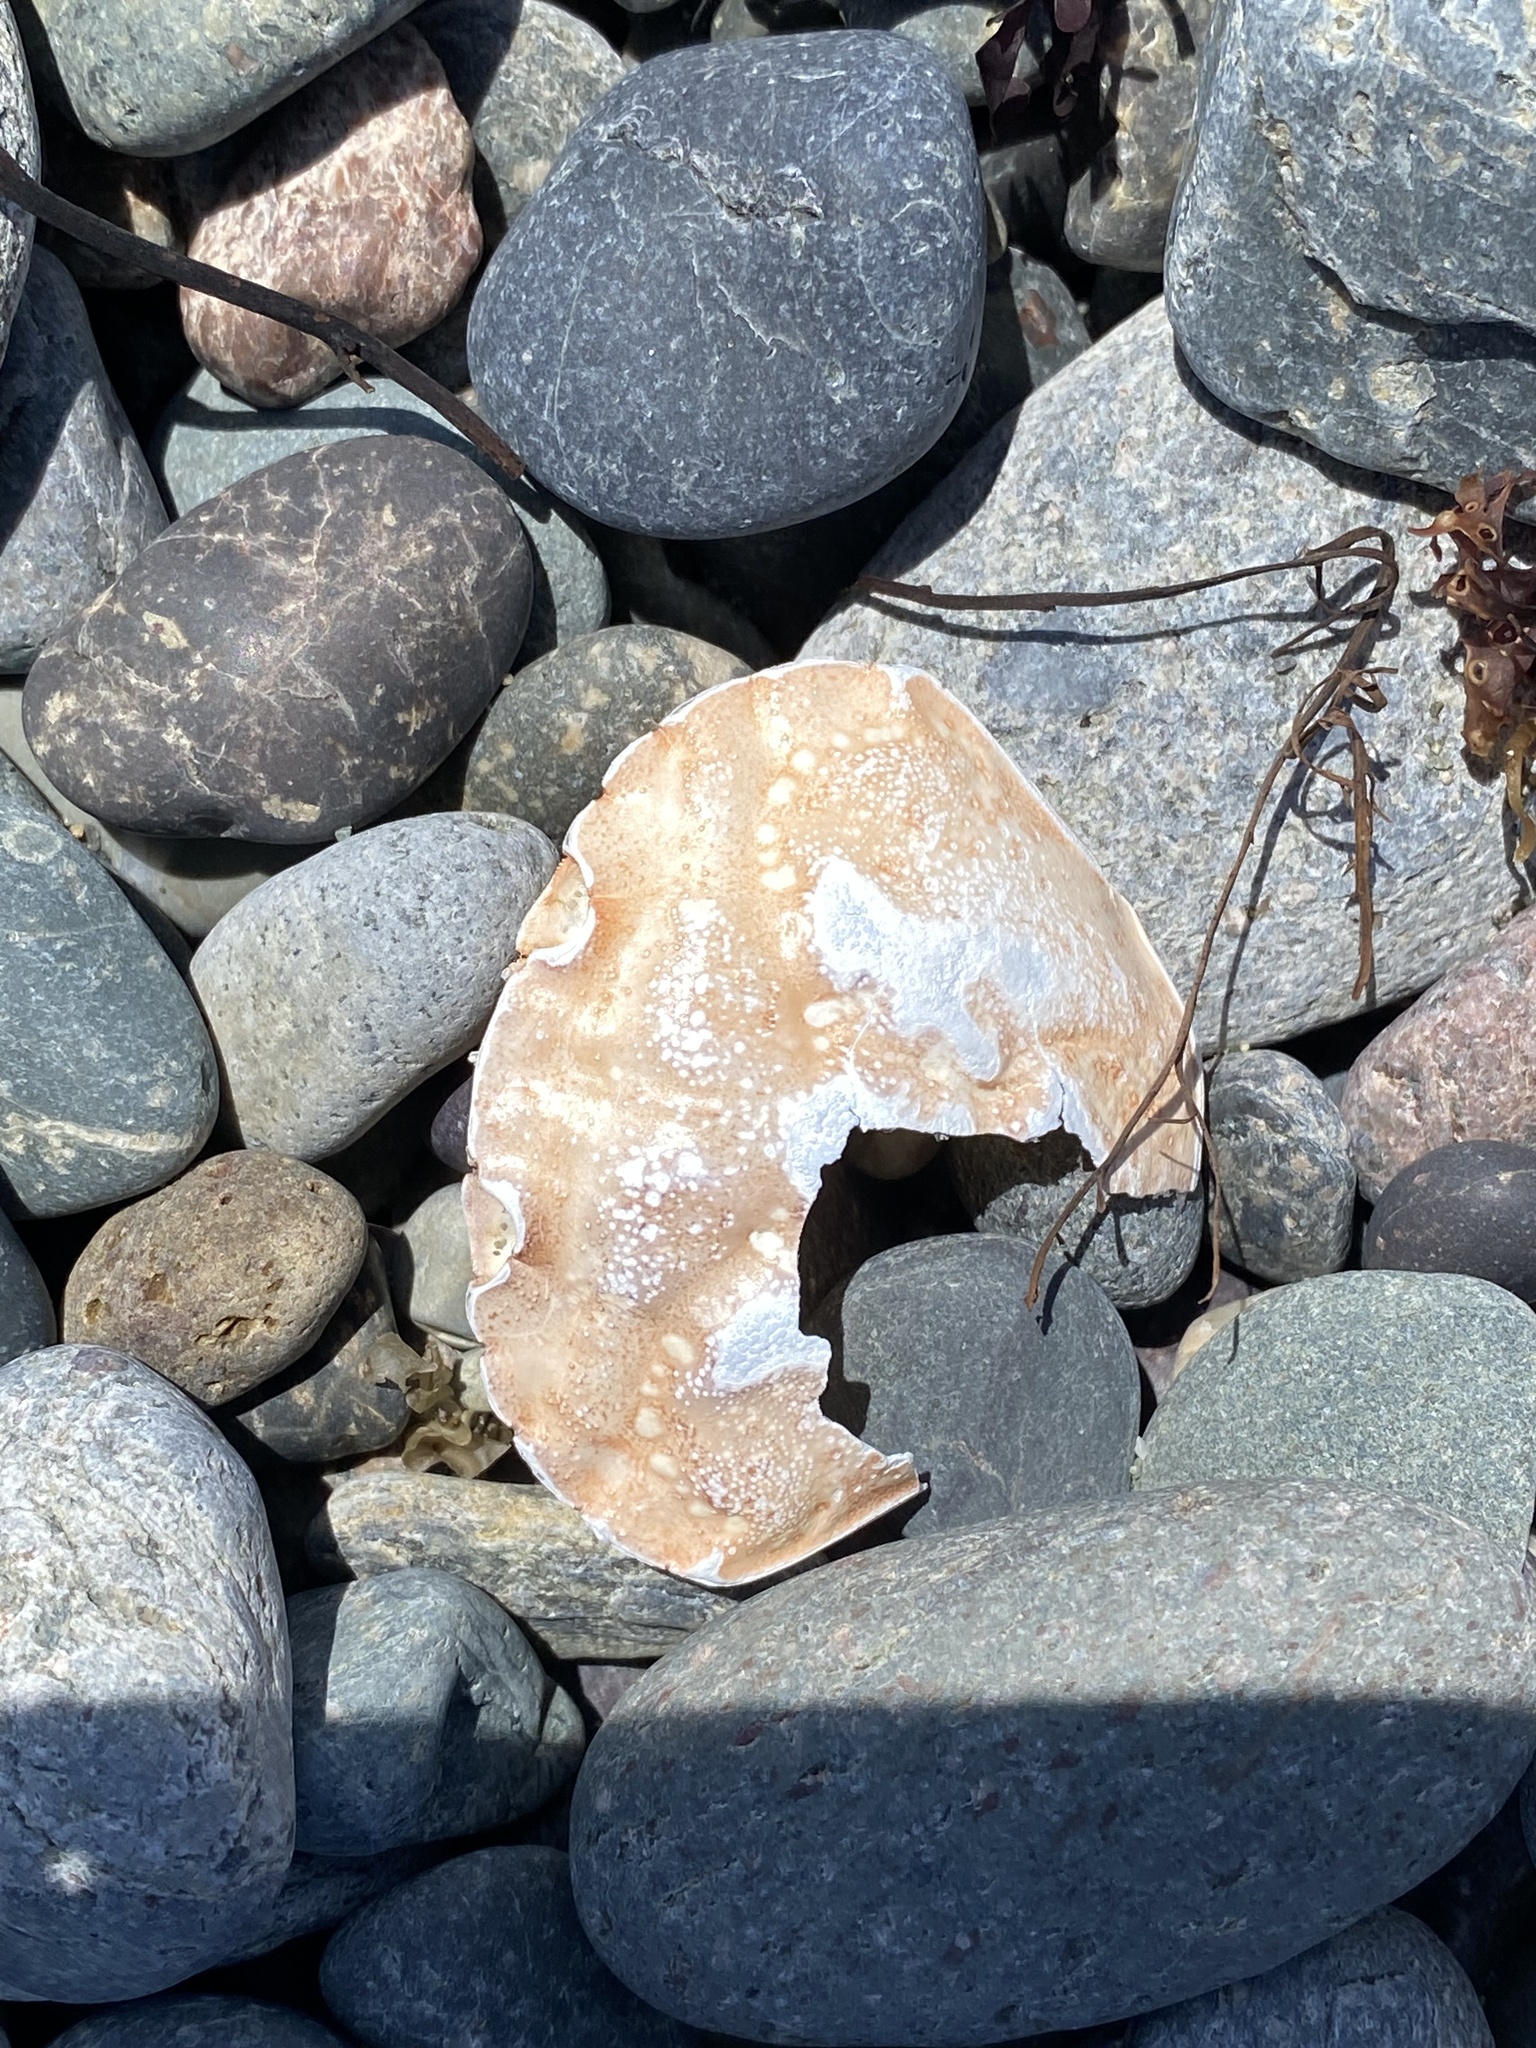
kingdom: Animalia
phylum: Arthropoda
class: Malacostraca
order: Decapoda
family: Carcinidae
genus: Carcinus
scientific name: Carcinus maenas
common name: European green crab
